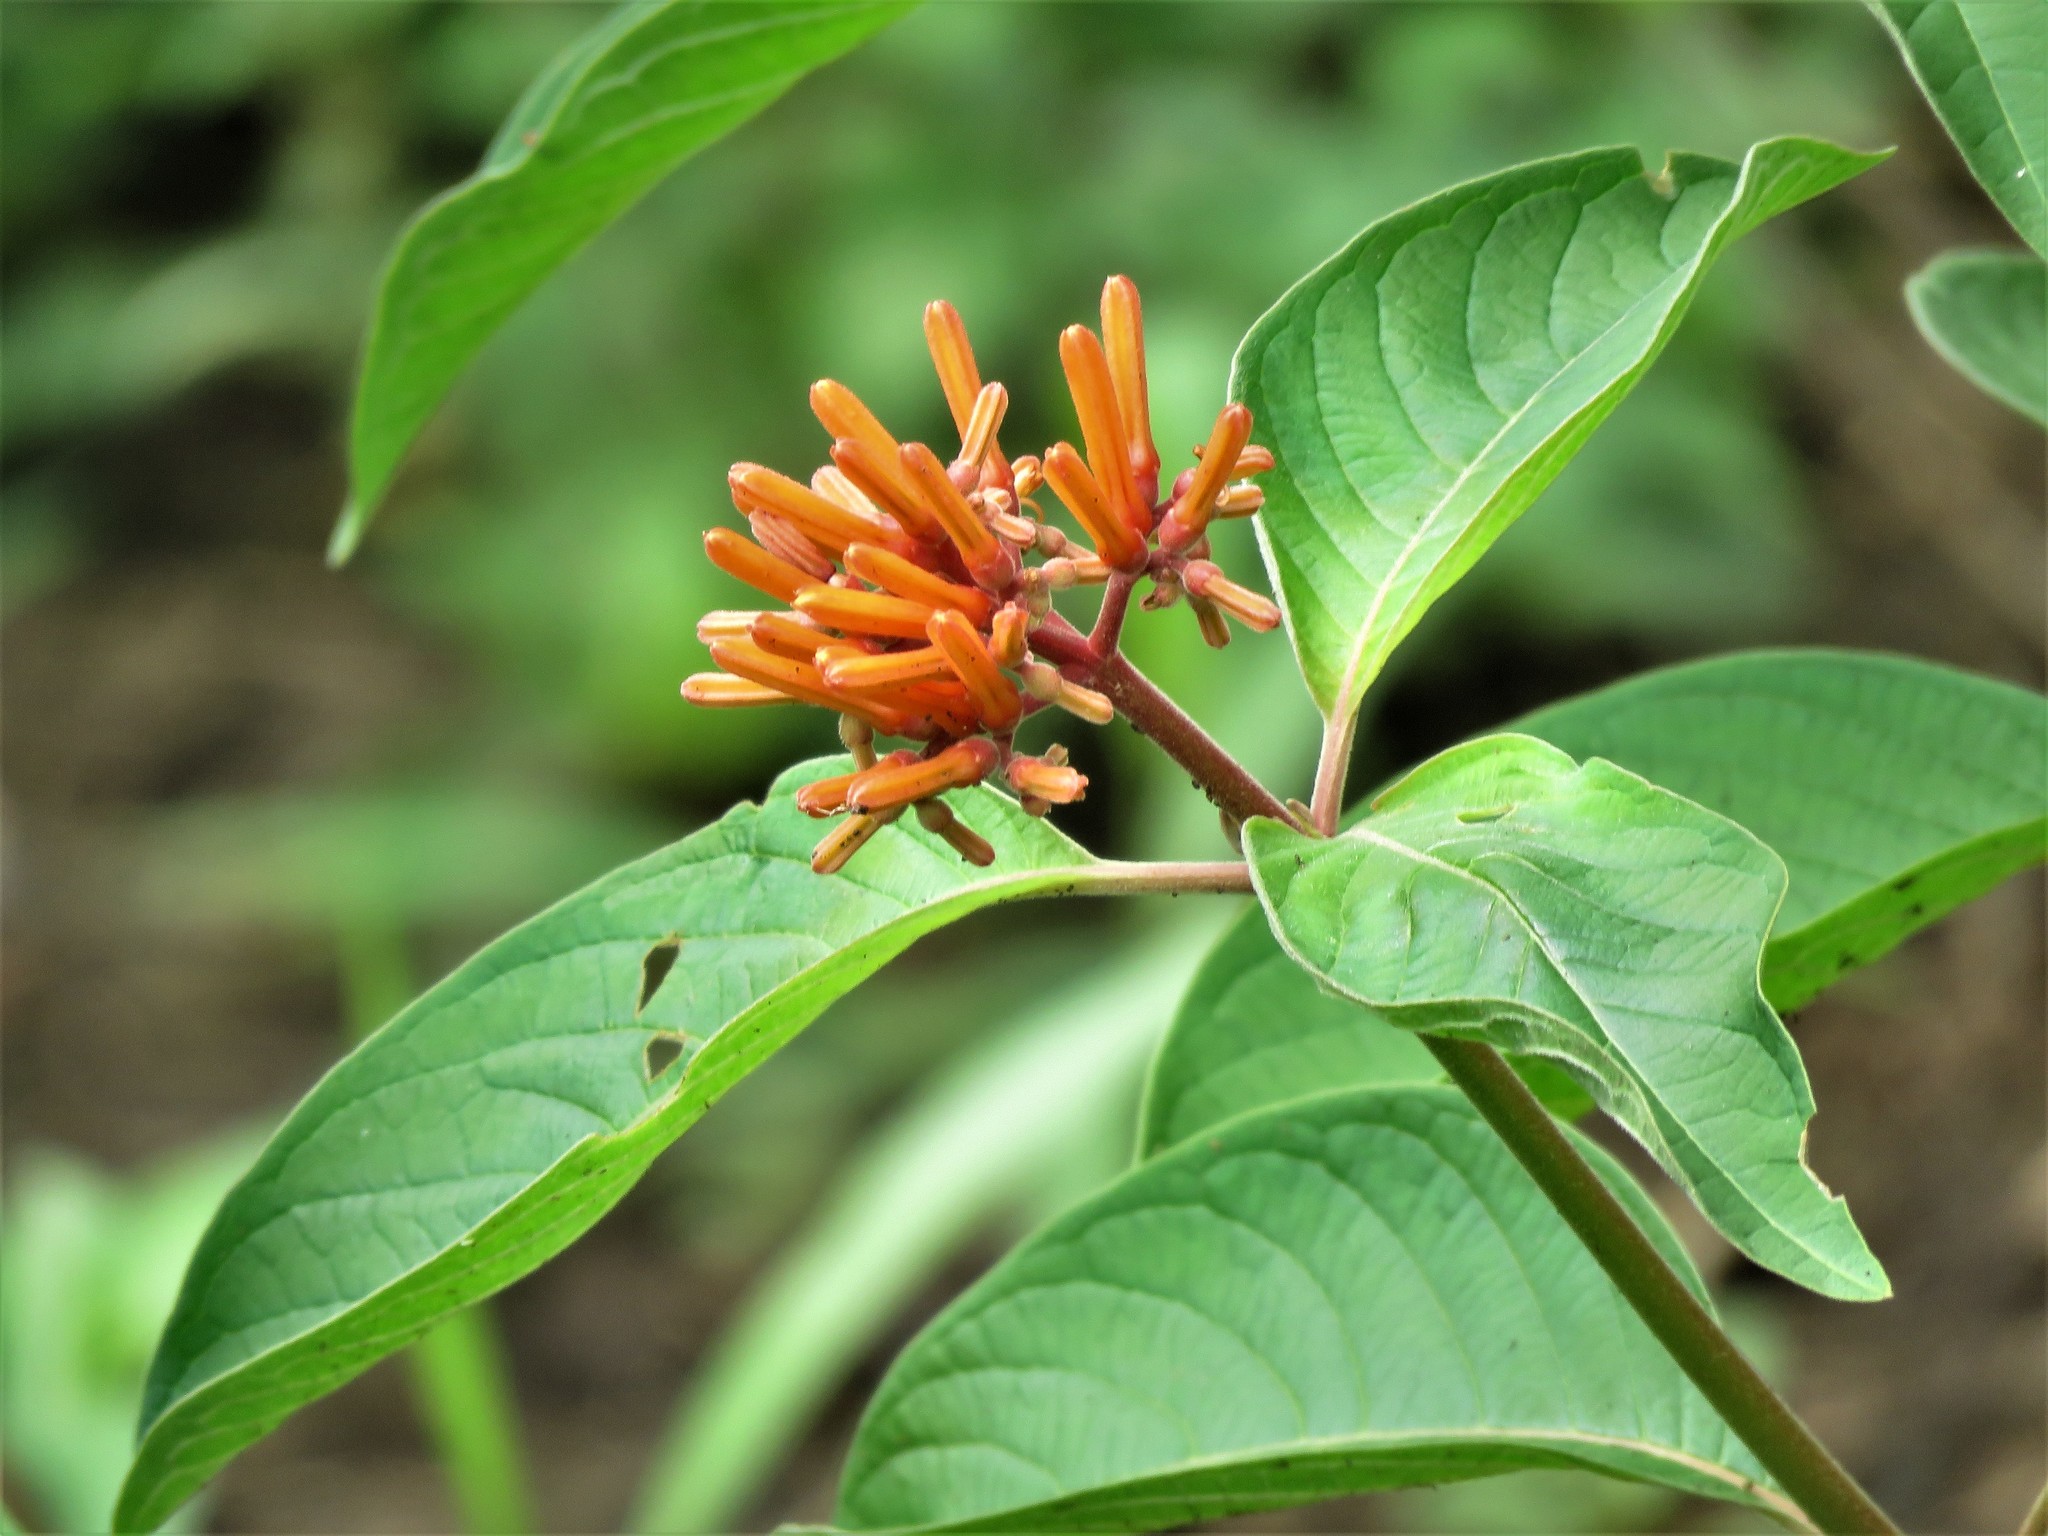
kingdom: Plantae
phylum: Tracheophyta
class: Magnoliopsida
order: Gentianales
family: Rubiaceae
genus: Hamelia
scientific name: Hamelia patens
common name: Redhead
